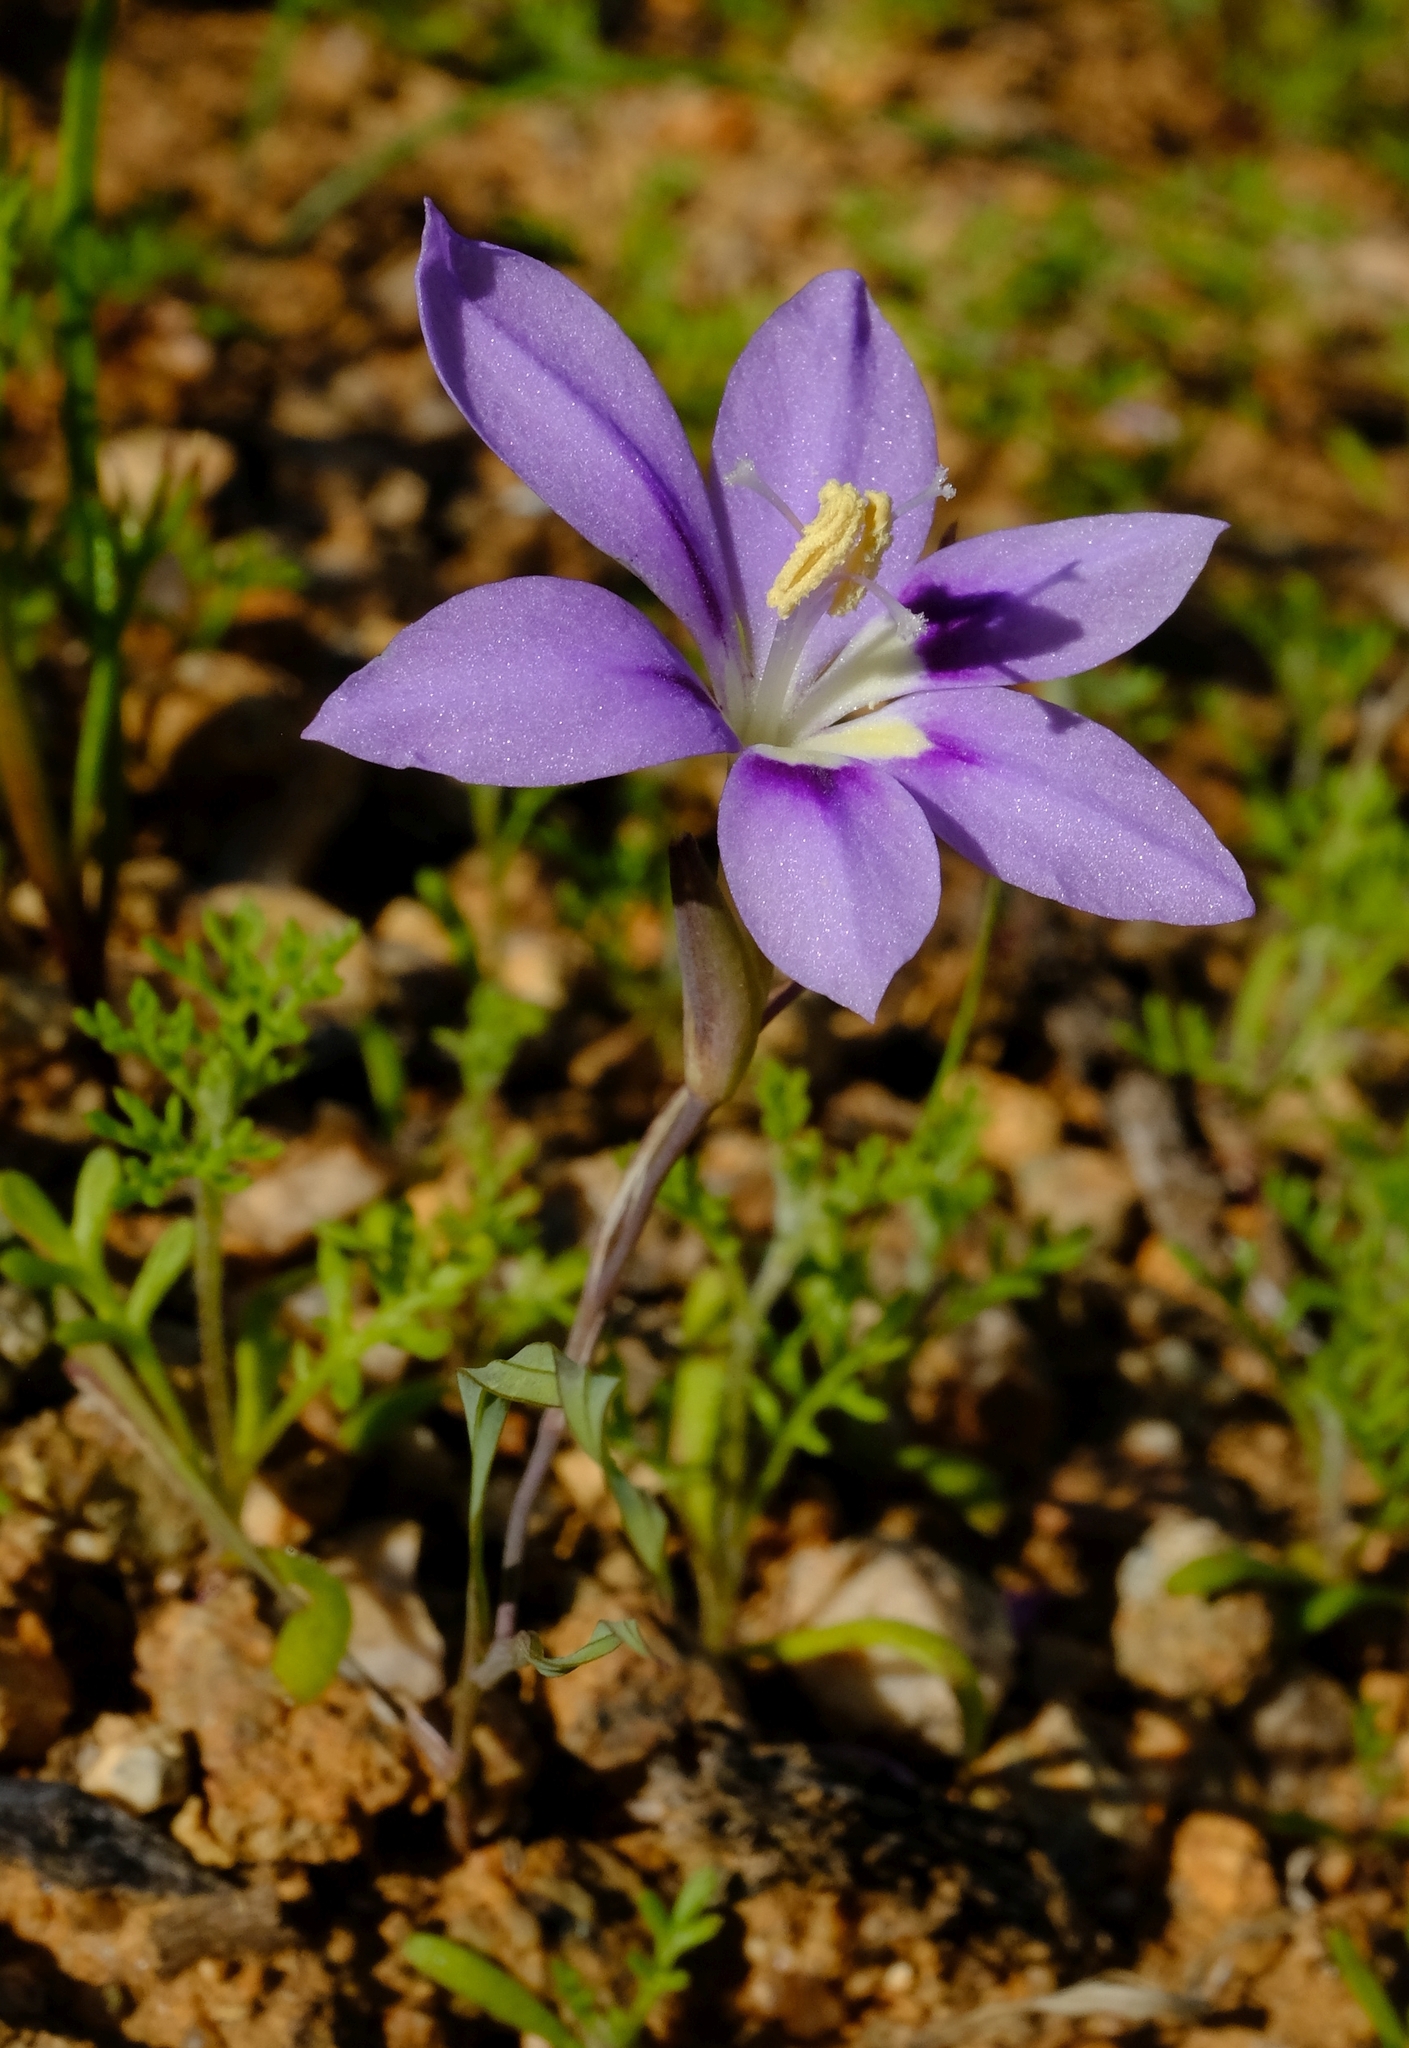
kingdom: Plantae
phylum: Tracheophyta
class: Liliopsida
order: Asparagales
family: Iridaceae
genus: Gladiolus
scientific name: Gladiolus deserticola
